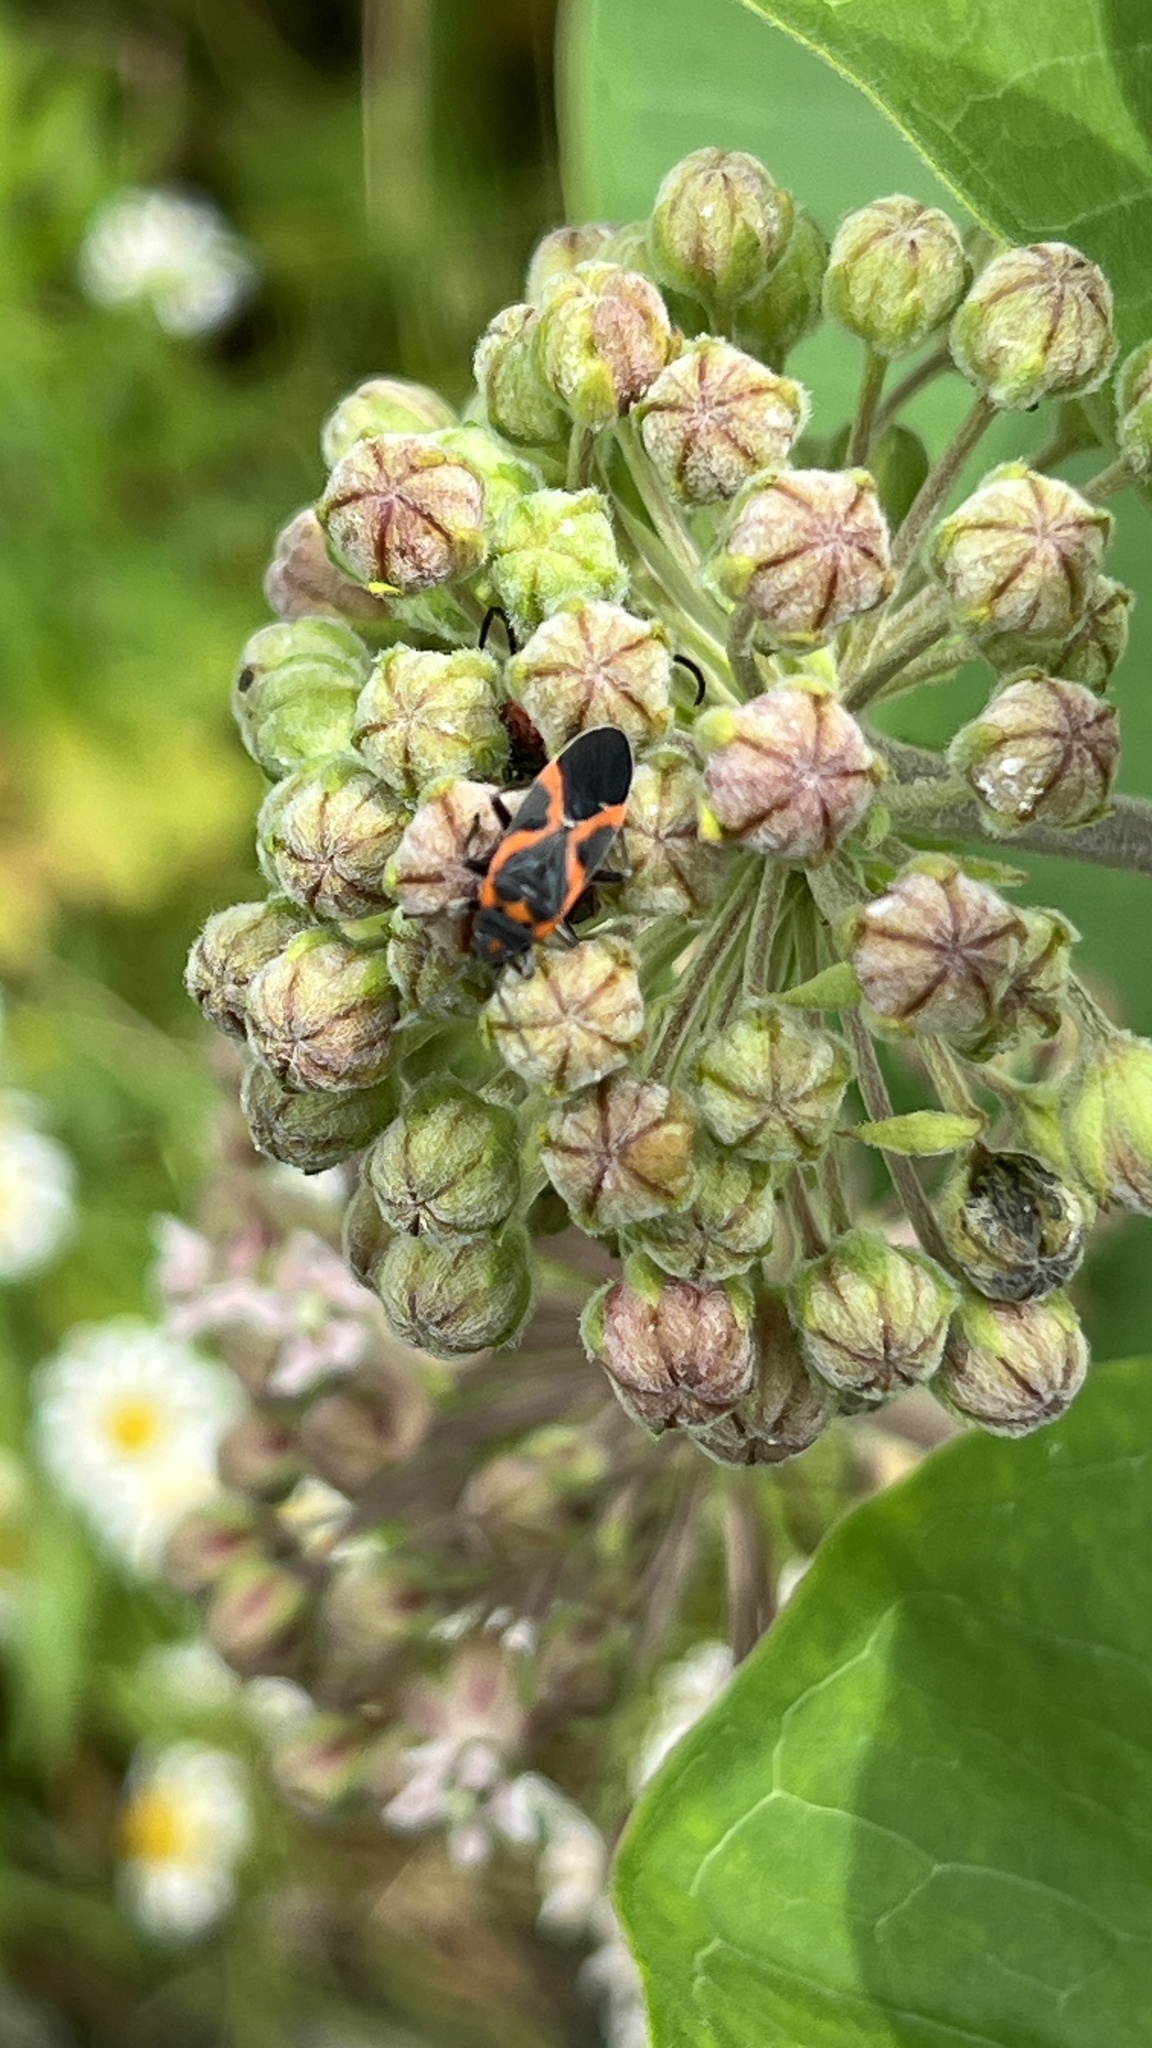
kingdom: Animalia
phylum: Arthropoda
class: Insecta
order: Hemiptera
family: Lygaeidae
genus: Lygaeus
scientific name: Lygaeus kalmii
